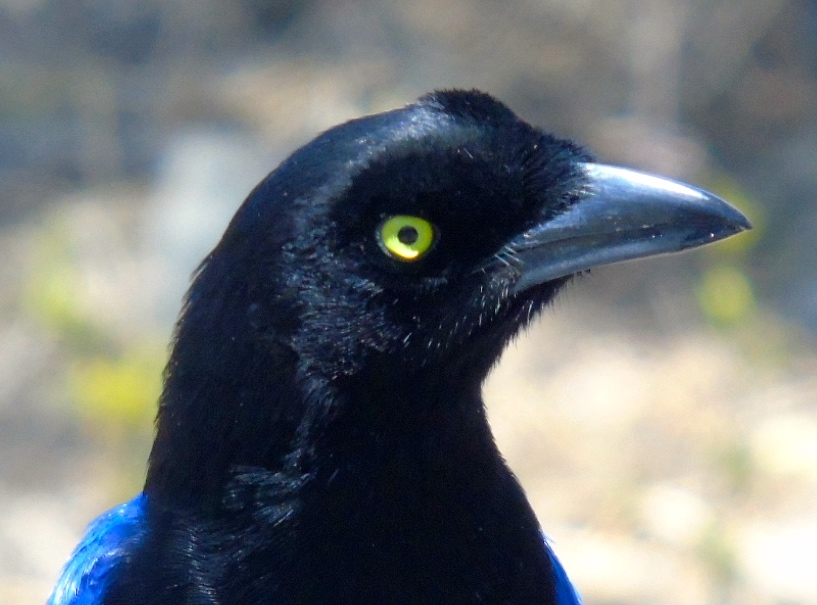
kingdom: Animalia
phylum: Chordata
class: Aves
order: Passeriformes
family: Corvidae
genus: Cyanocorax
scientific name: Cyanocorax beecheii
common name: Purplish-backed jay
